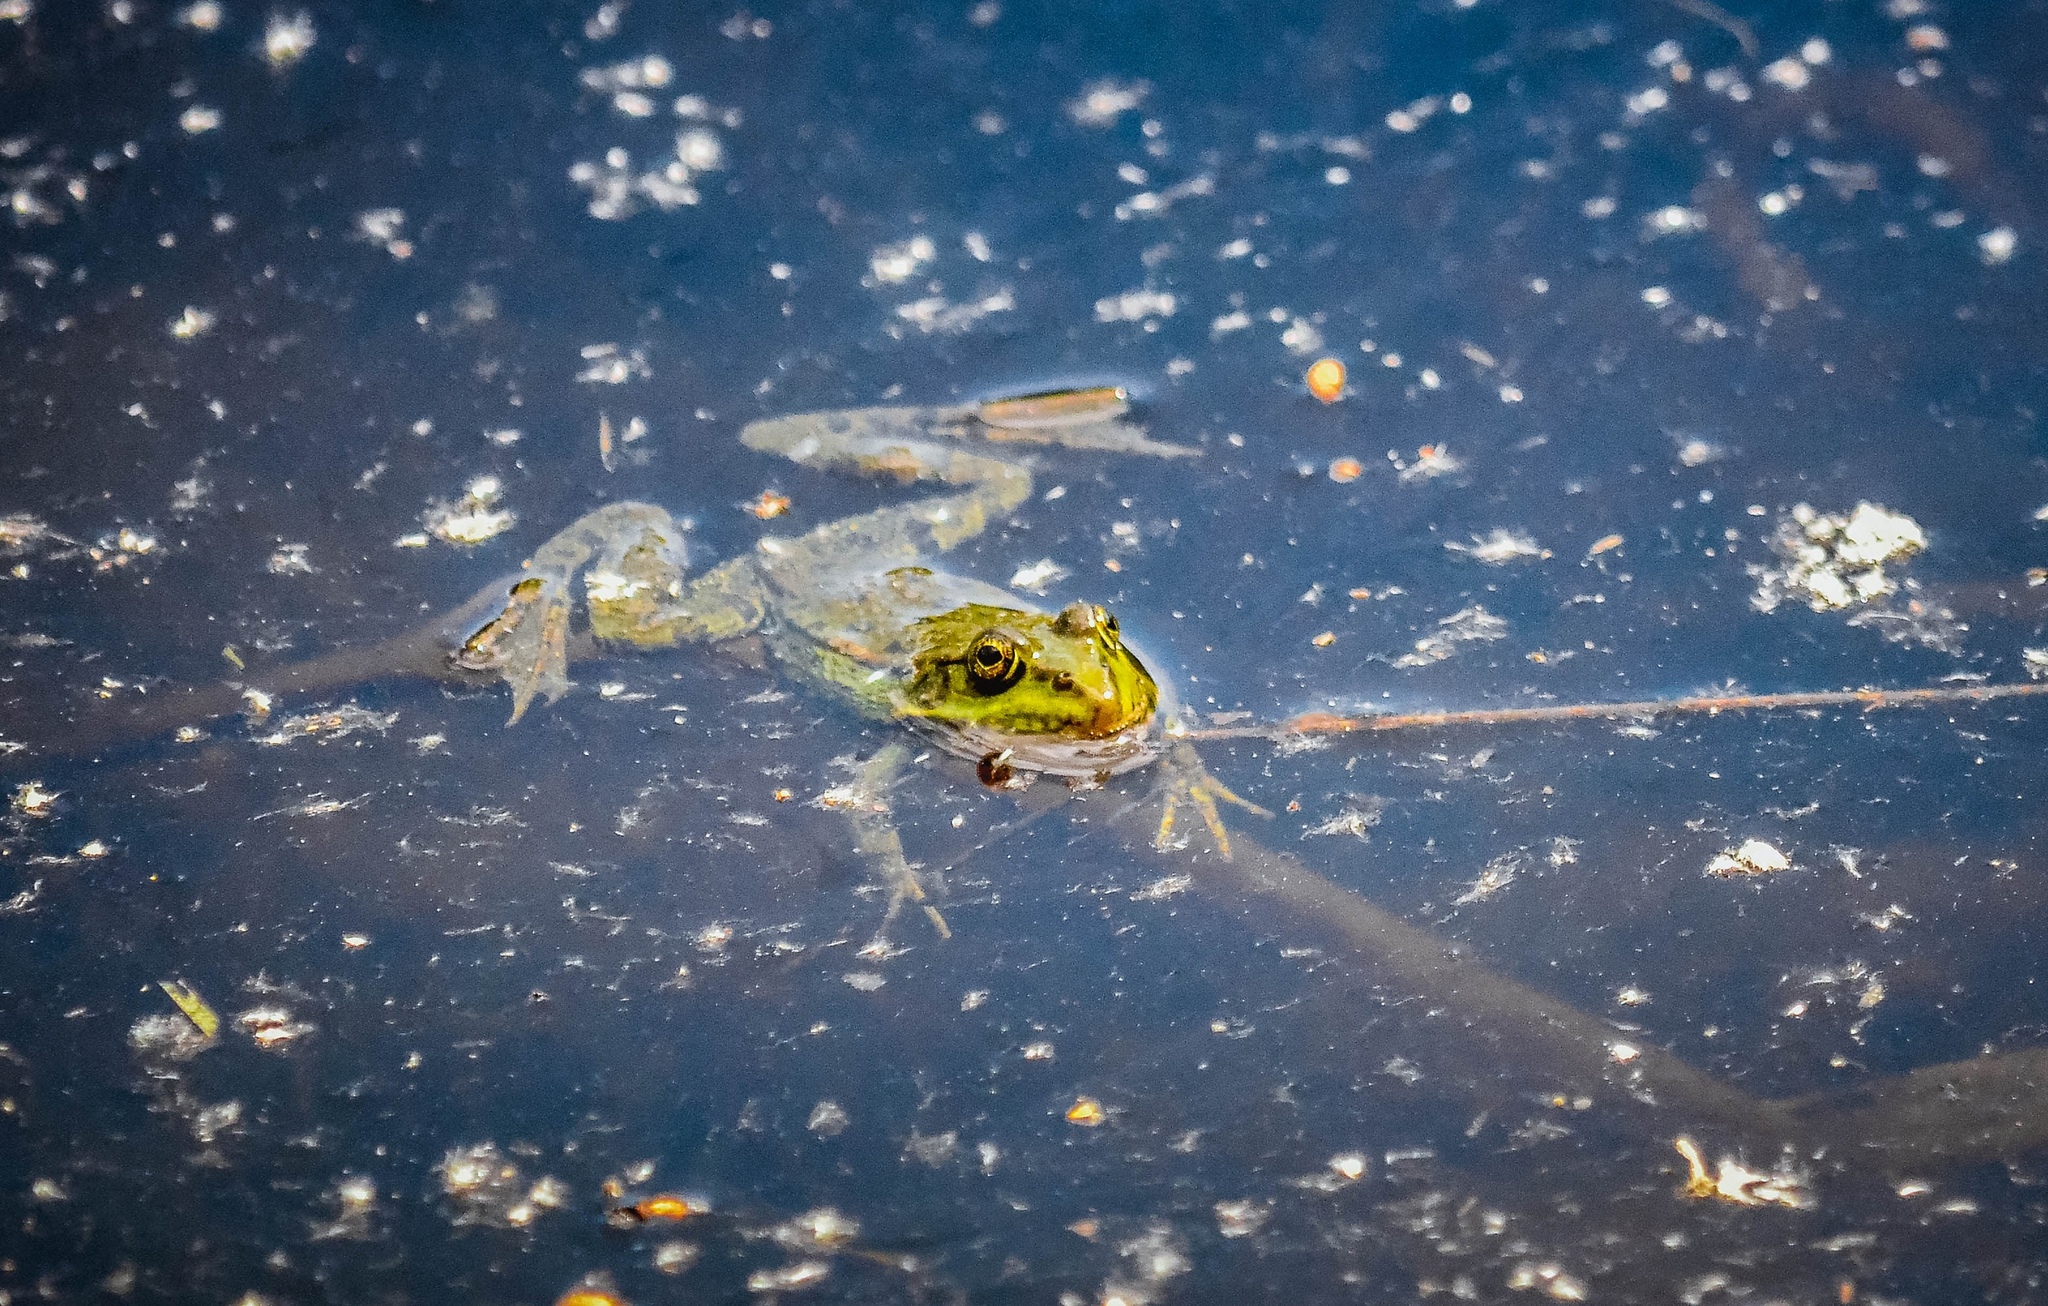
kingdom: Animalia
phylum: Chordata
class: Amphibia
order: Anura
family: Ranidae
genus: Pelophylax
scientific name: Pelophylax ridibundus
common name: Marsh frog
